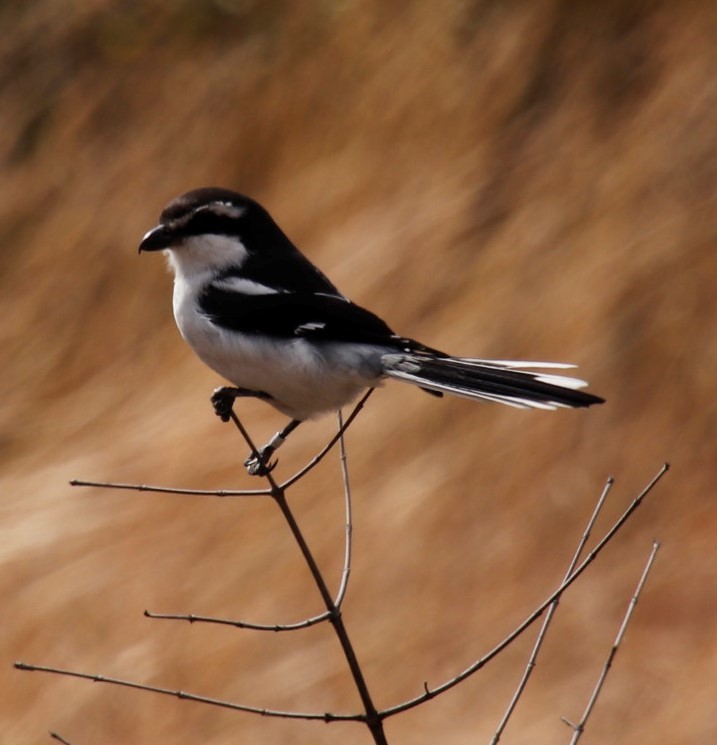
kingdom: Animalia
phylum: Chordata
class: Aves
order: Passeriformes
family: Laniidae
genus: Lanius
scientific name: Lanius collaris
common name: Southern fiscal
